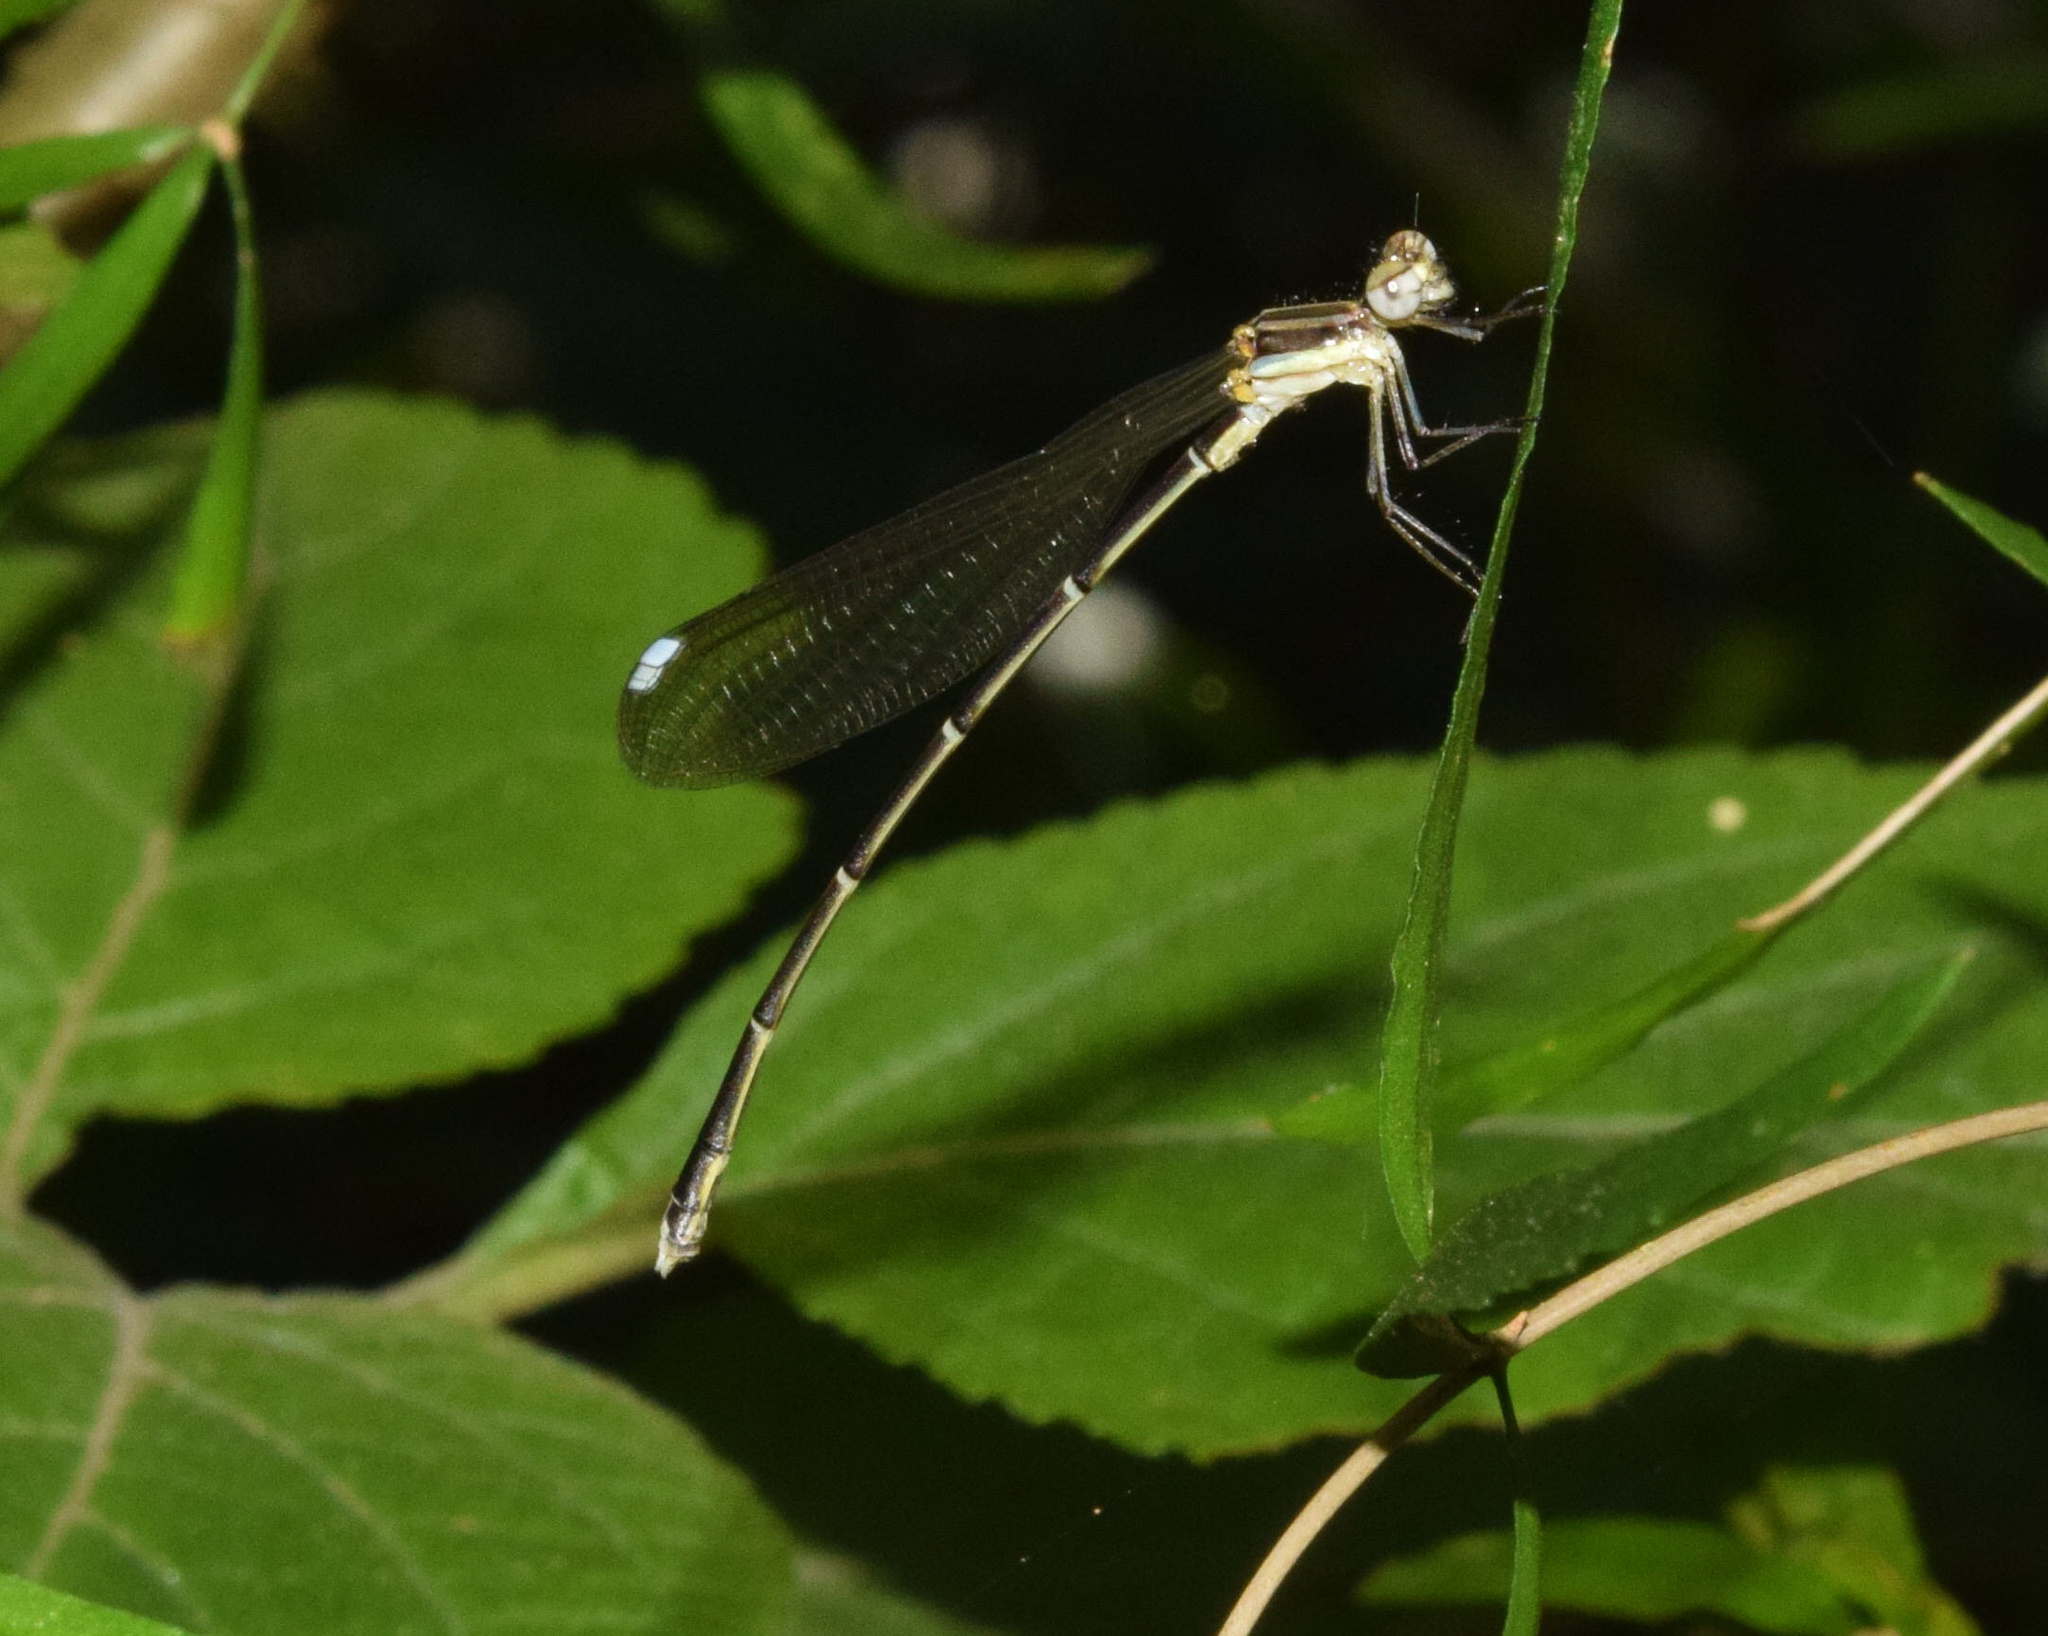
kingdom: Animalia
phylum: Arthropoda
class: Insecta
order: Odonata
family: Platycnemididae
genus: Allocnemis
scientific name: Allocnemis leucosticta
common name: Goldtail
